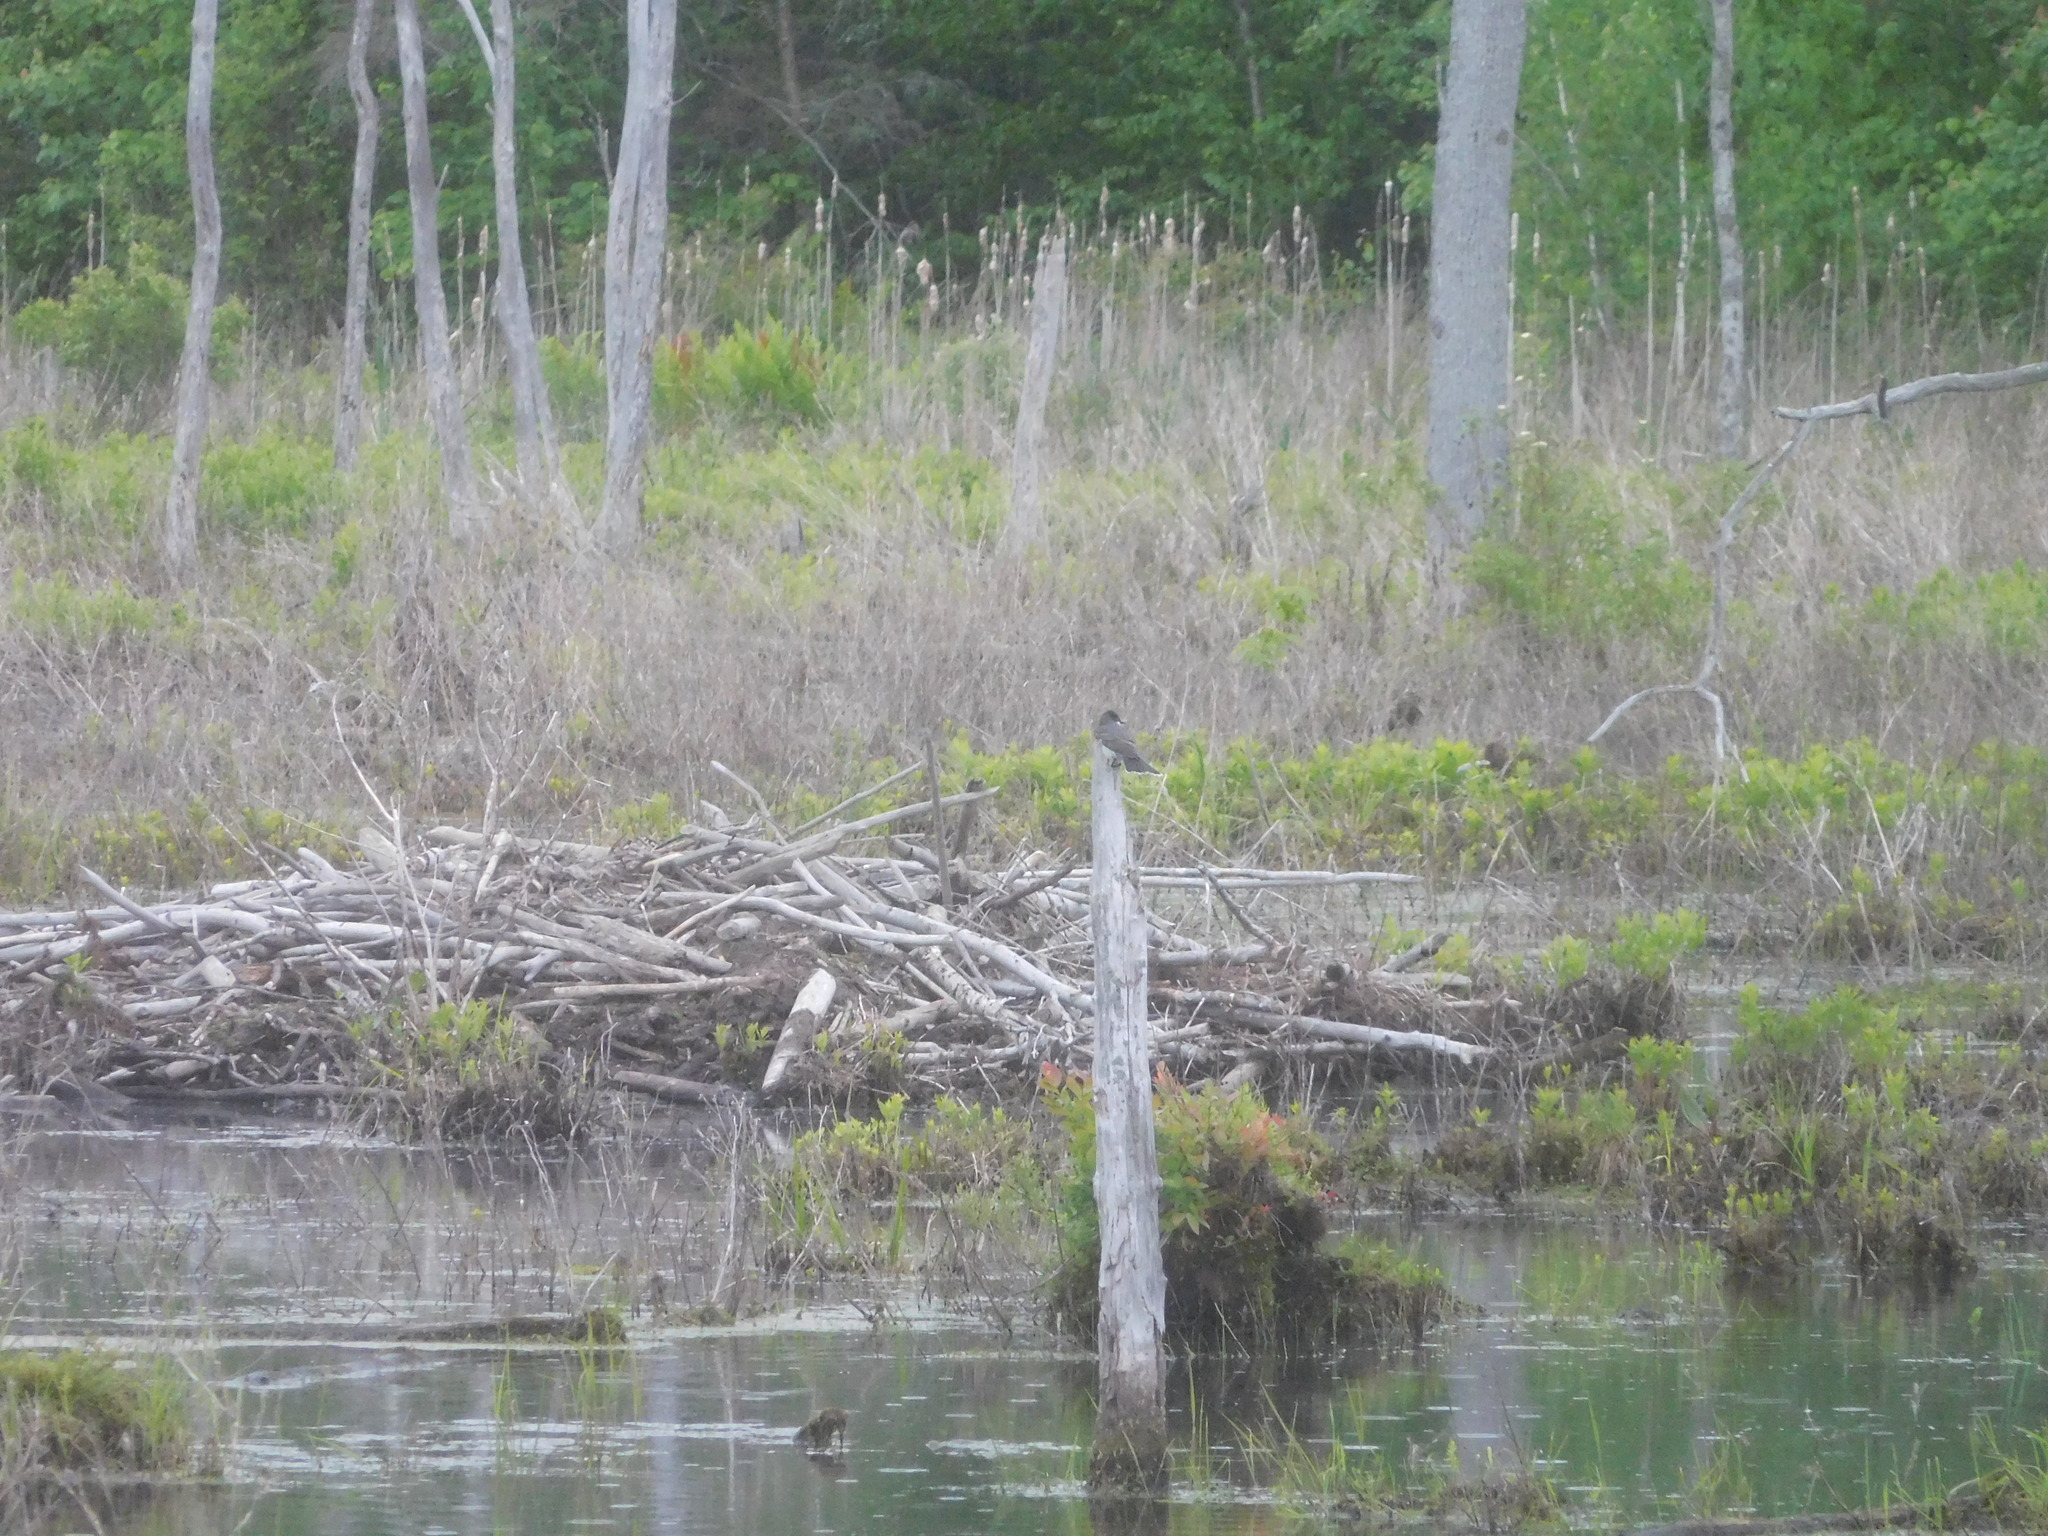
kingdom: Animalia
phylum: Chordata
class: Aves
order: Passeriformes
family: Tyrannidae
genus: Tyrannus
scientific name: Tyrannus tyrannus
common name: Eastern kingbird
